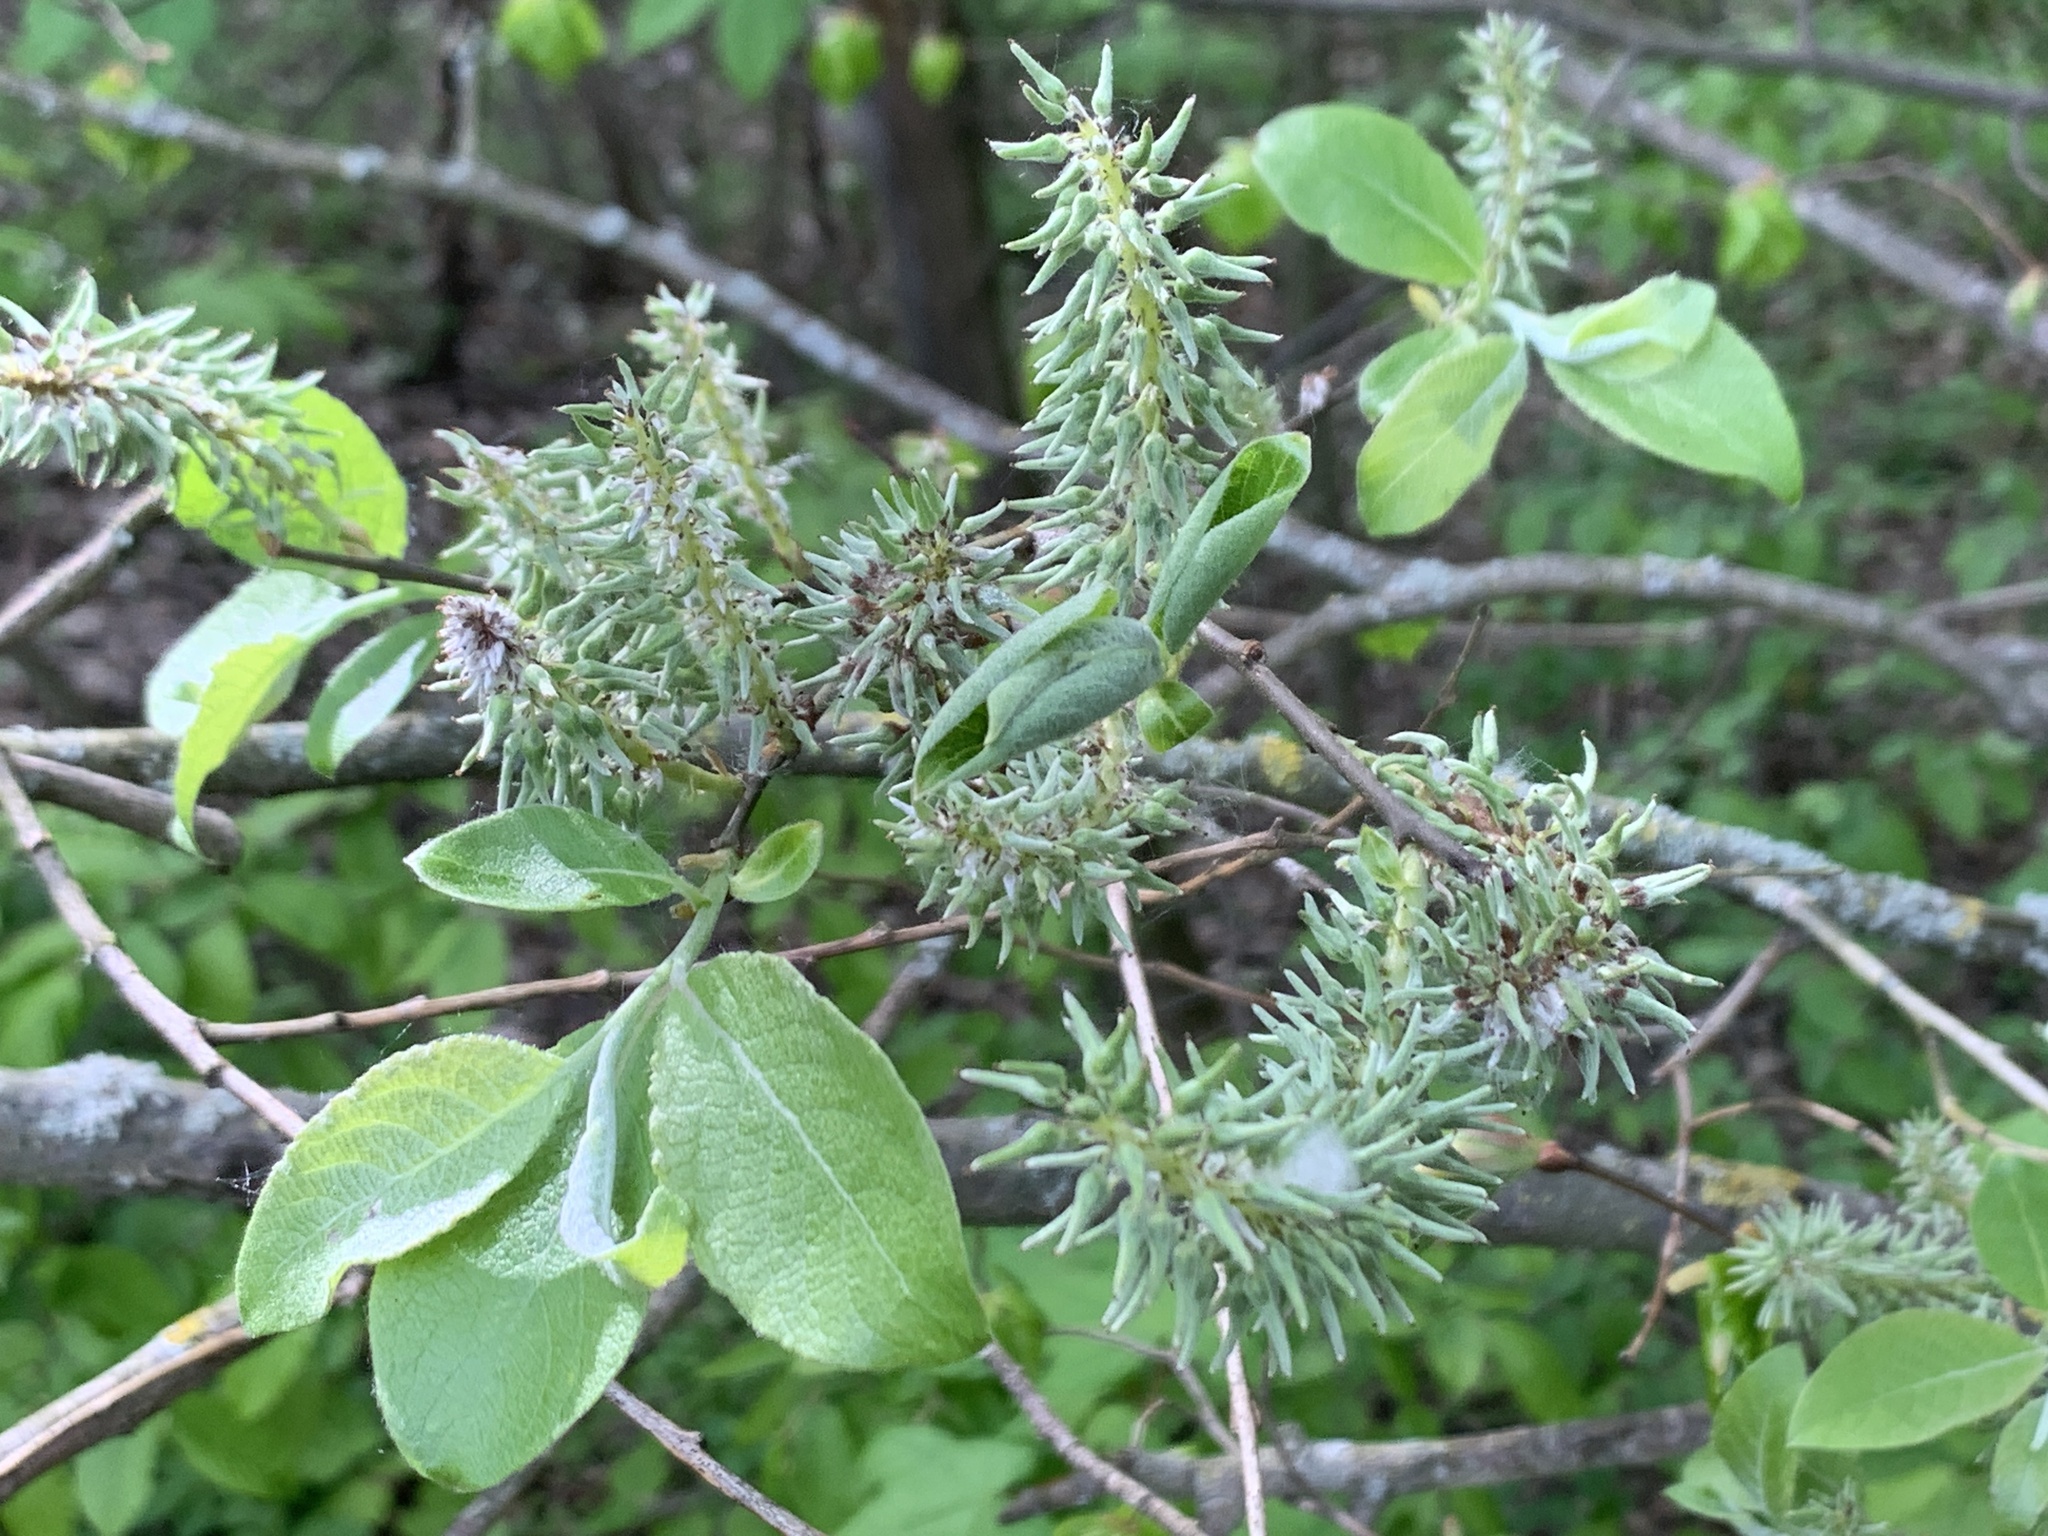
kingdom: Plantae
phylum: Tracheophyta
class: Magnoliopsida
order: Malpighiales
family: Salicaceae
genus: Salix
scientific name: Salix caprea
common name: Goat willow
